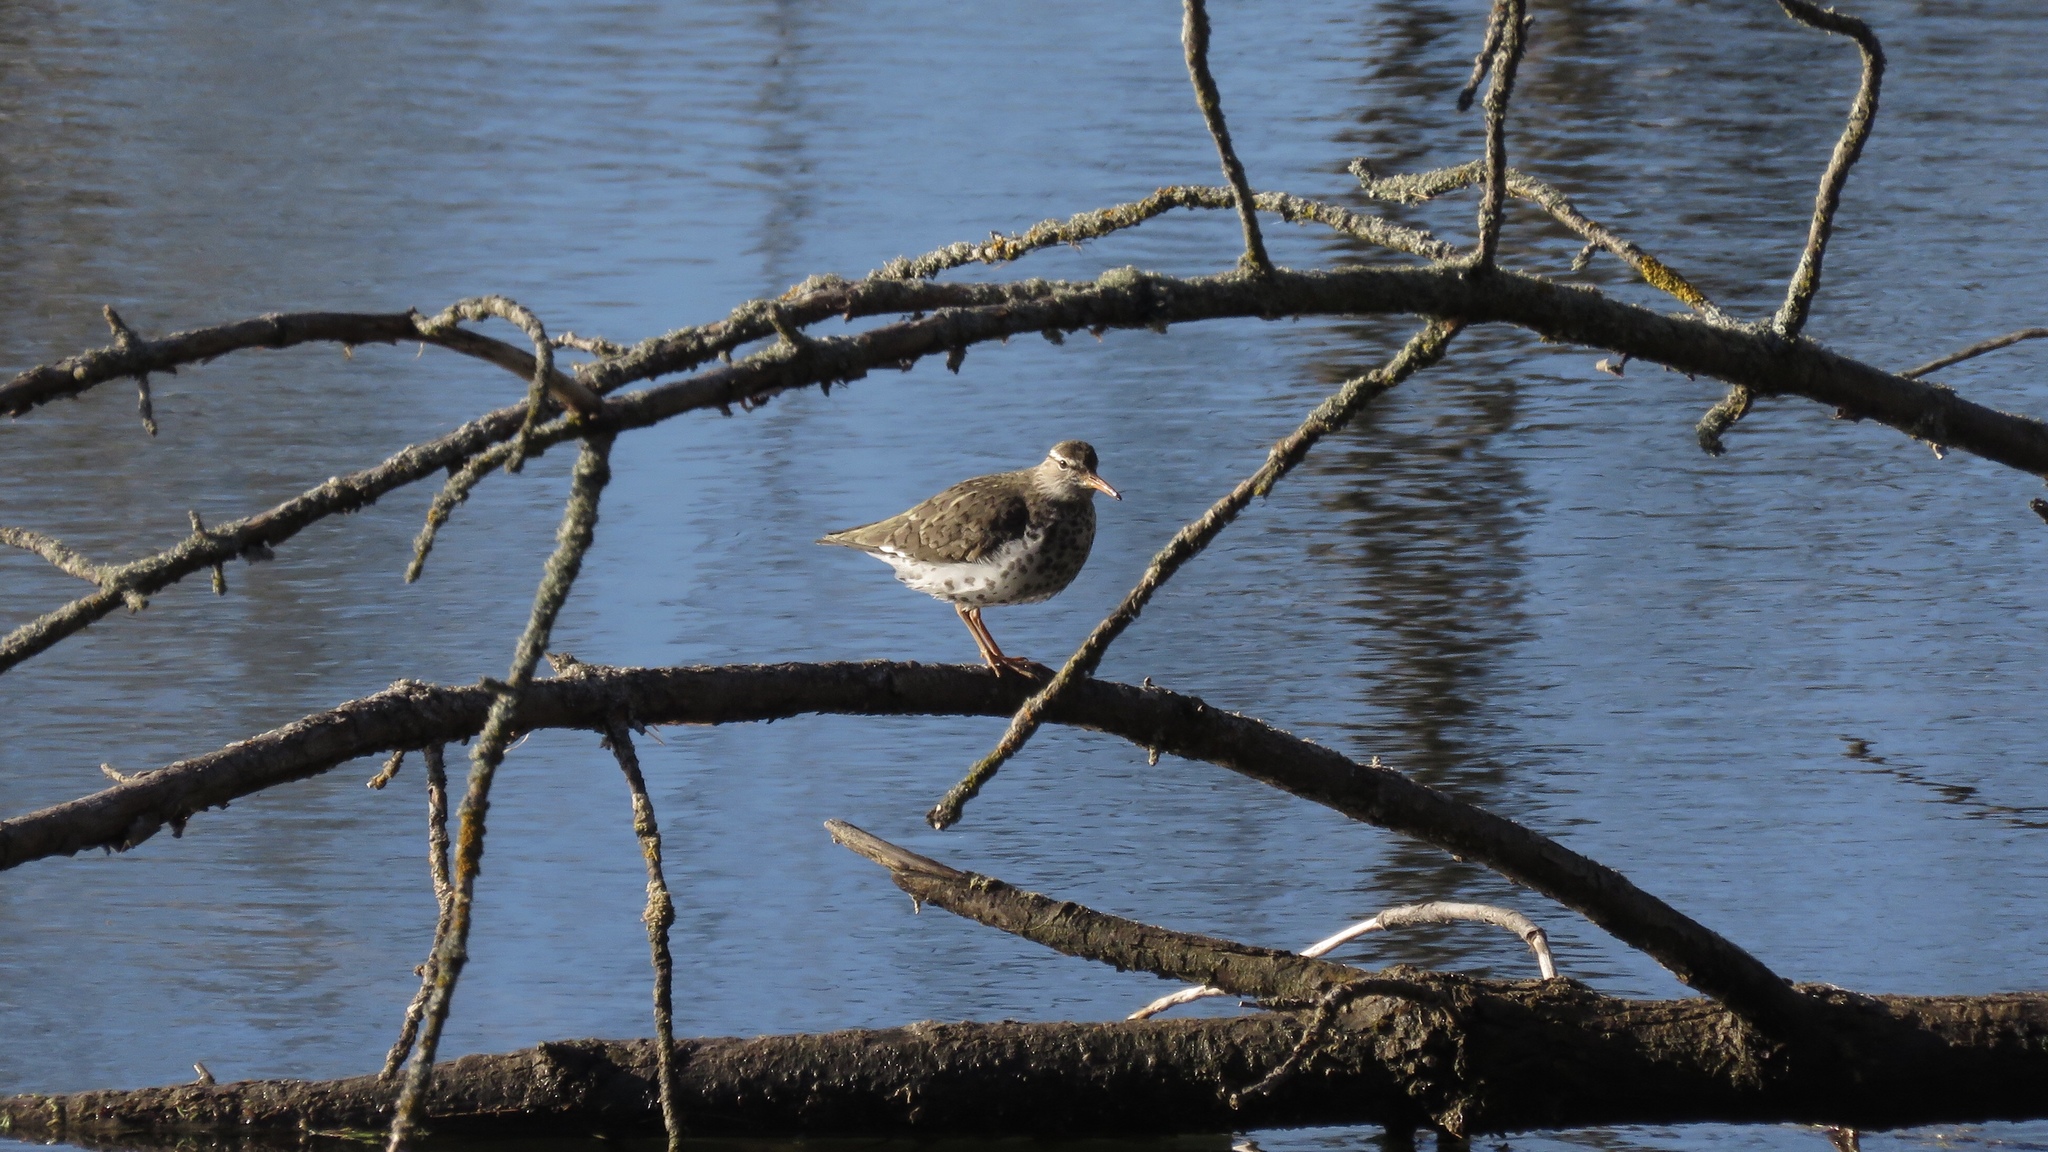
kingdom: Animalia
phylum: Chordata
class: Aves
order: Charadriiformes
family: Scolopacidae
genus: Actitis
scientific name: Actitis macularius
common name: Spotted sandpiper
